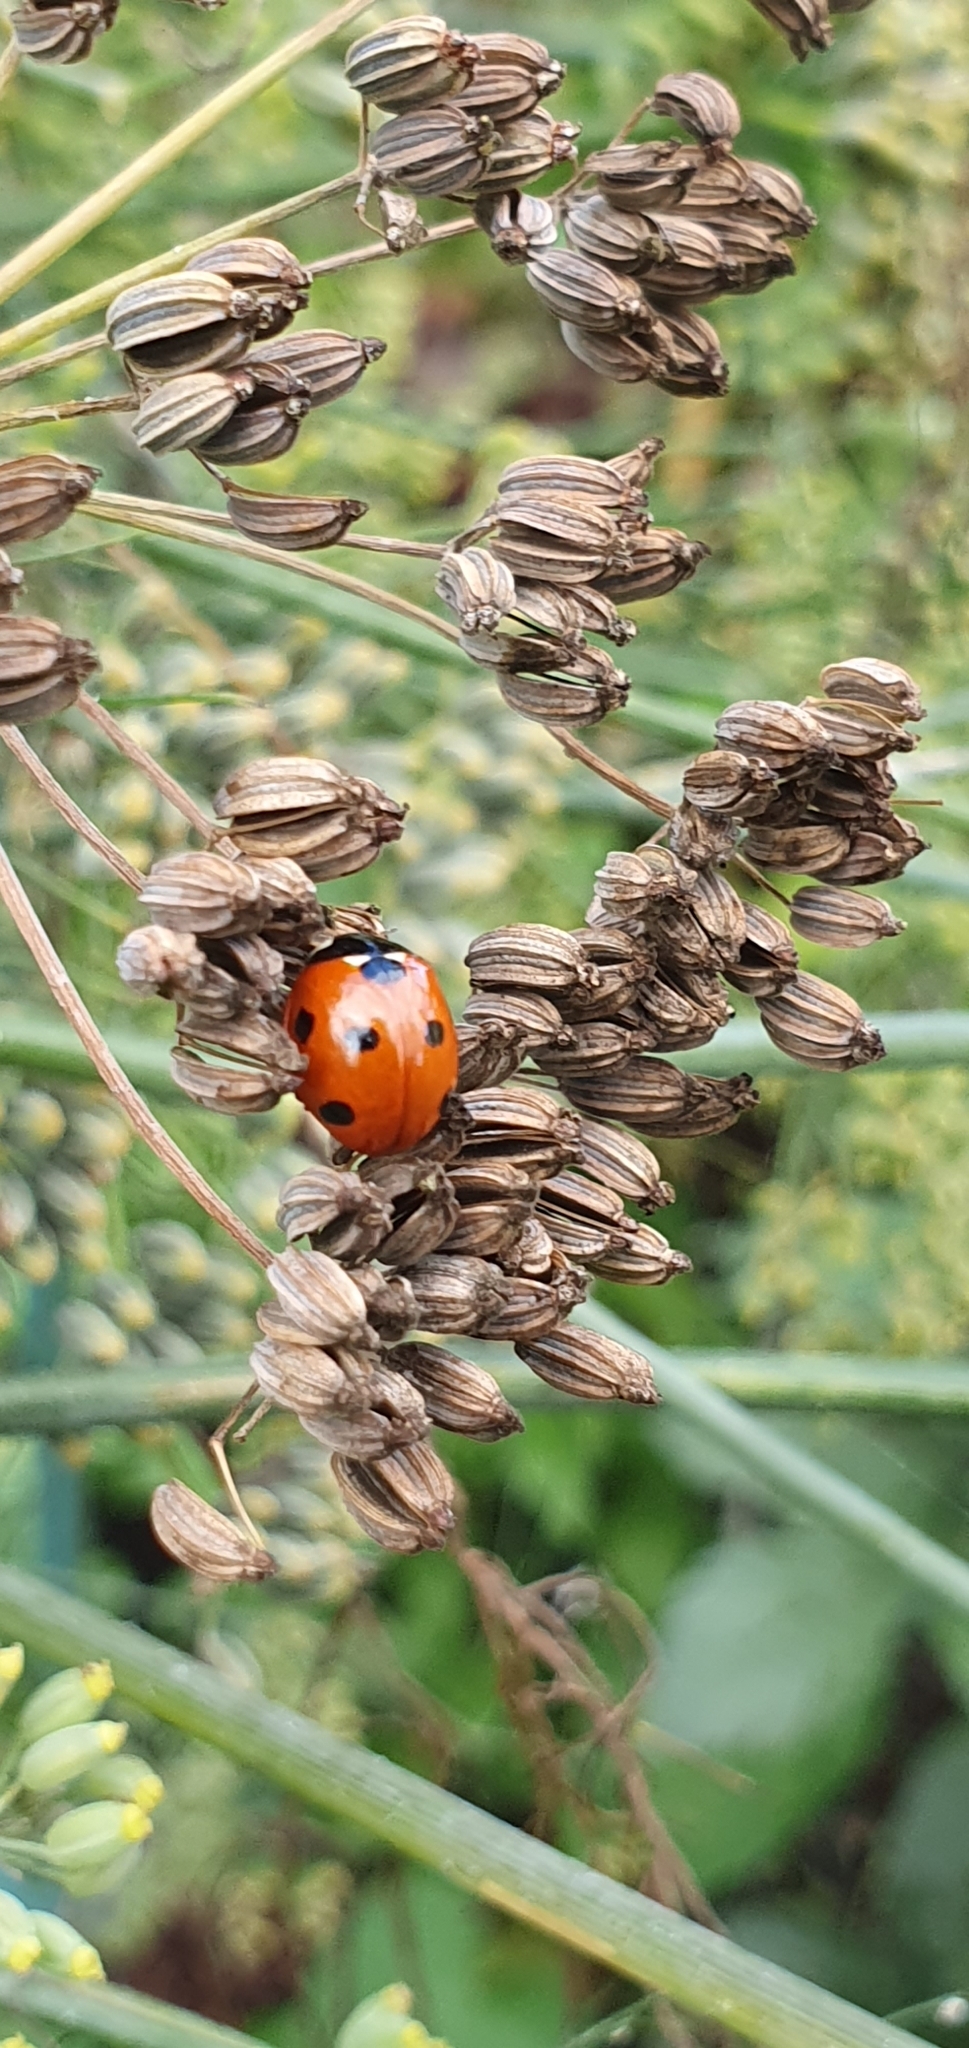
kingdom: Animalia
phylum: Arthropoda
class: Insecta
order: Coleoptera
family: Coccinellidae
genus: Coccinella
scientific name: Coccinella septempunctata
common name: Sevenspotted lady beetle
